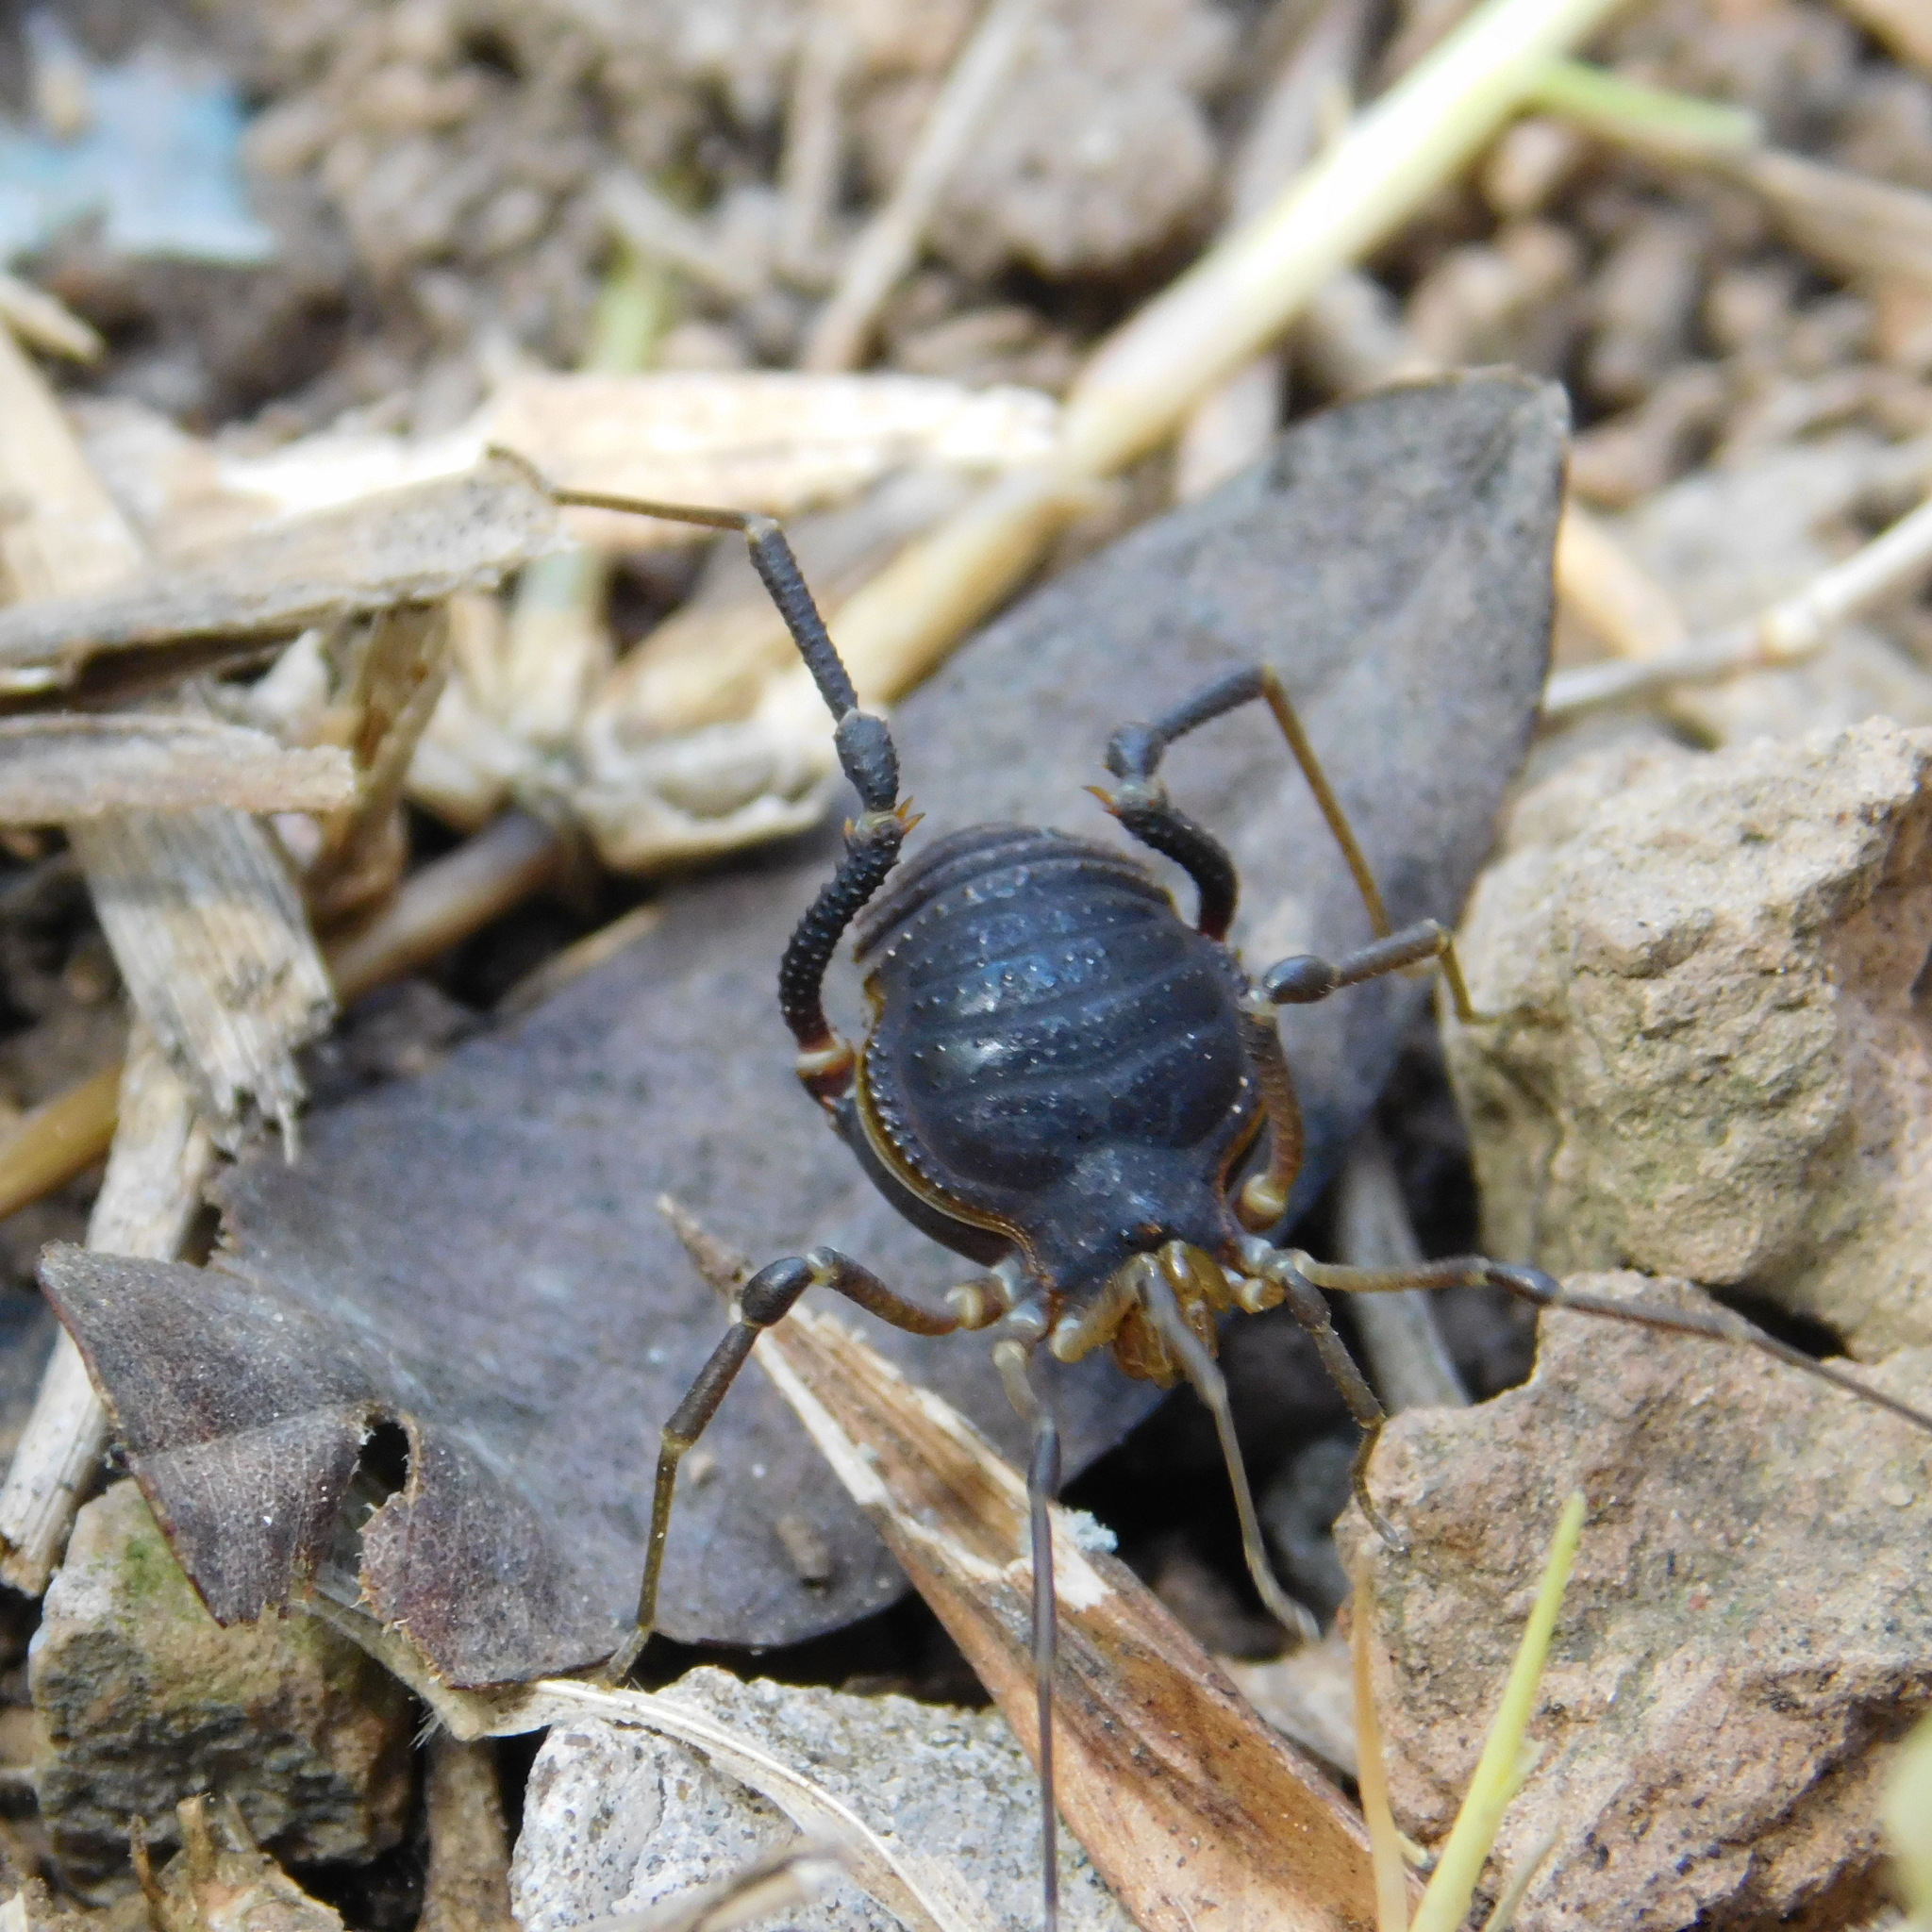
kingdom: Animalia
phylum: Arthropoda
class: Arachnida
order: Opiliones
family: Gonyleptidae
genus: Acanthopachylus
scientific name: Acanthopachylus robustus
